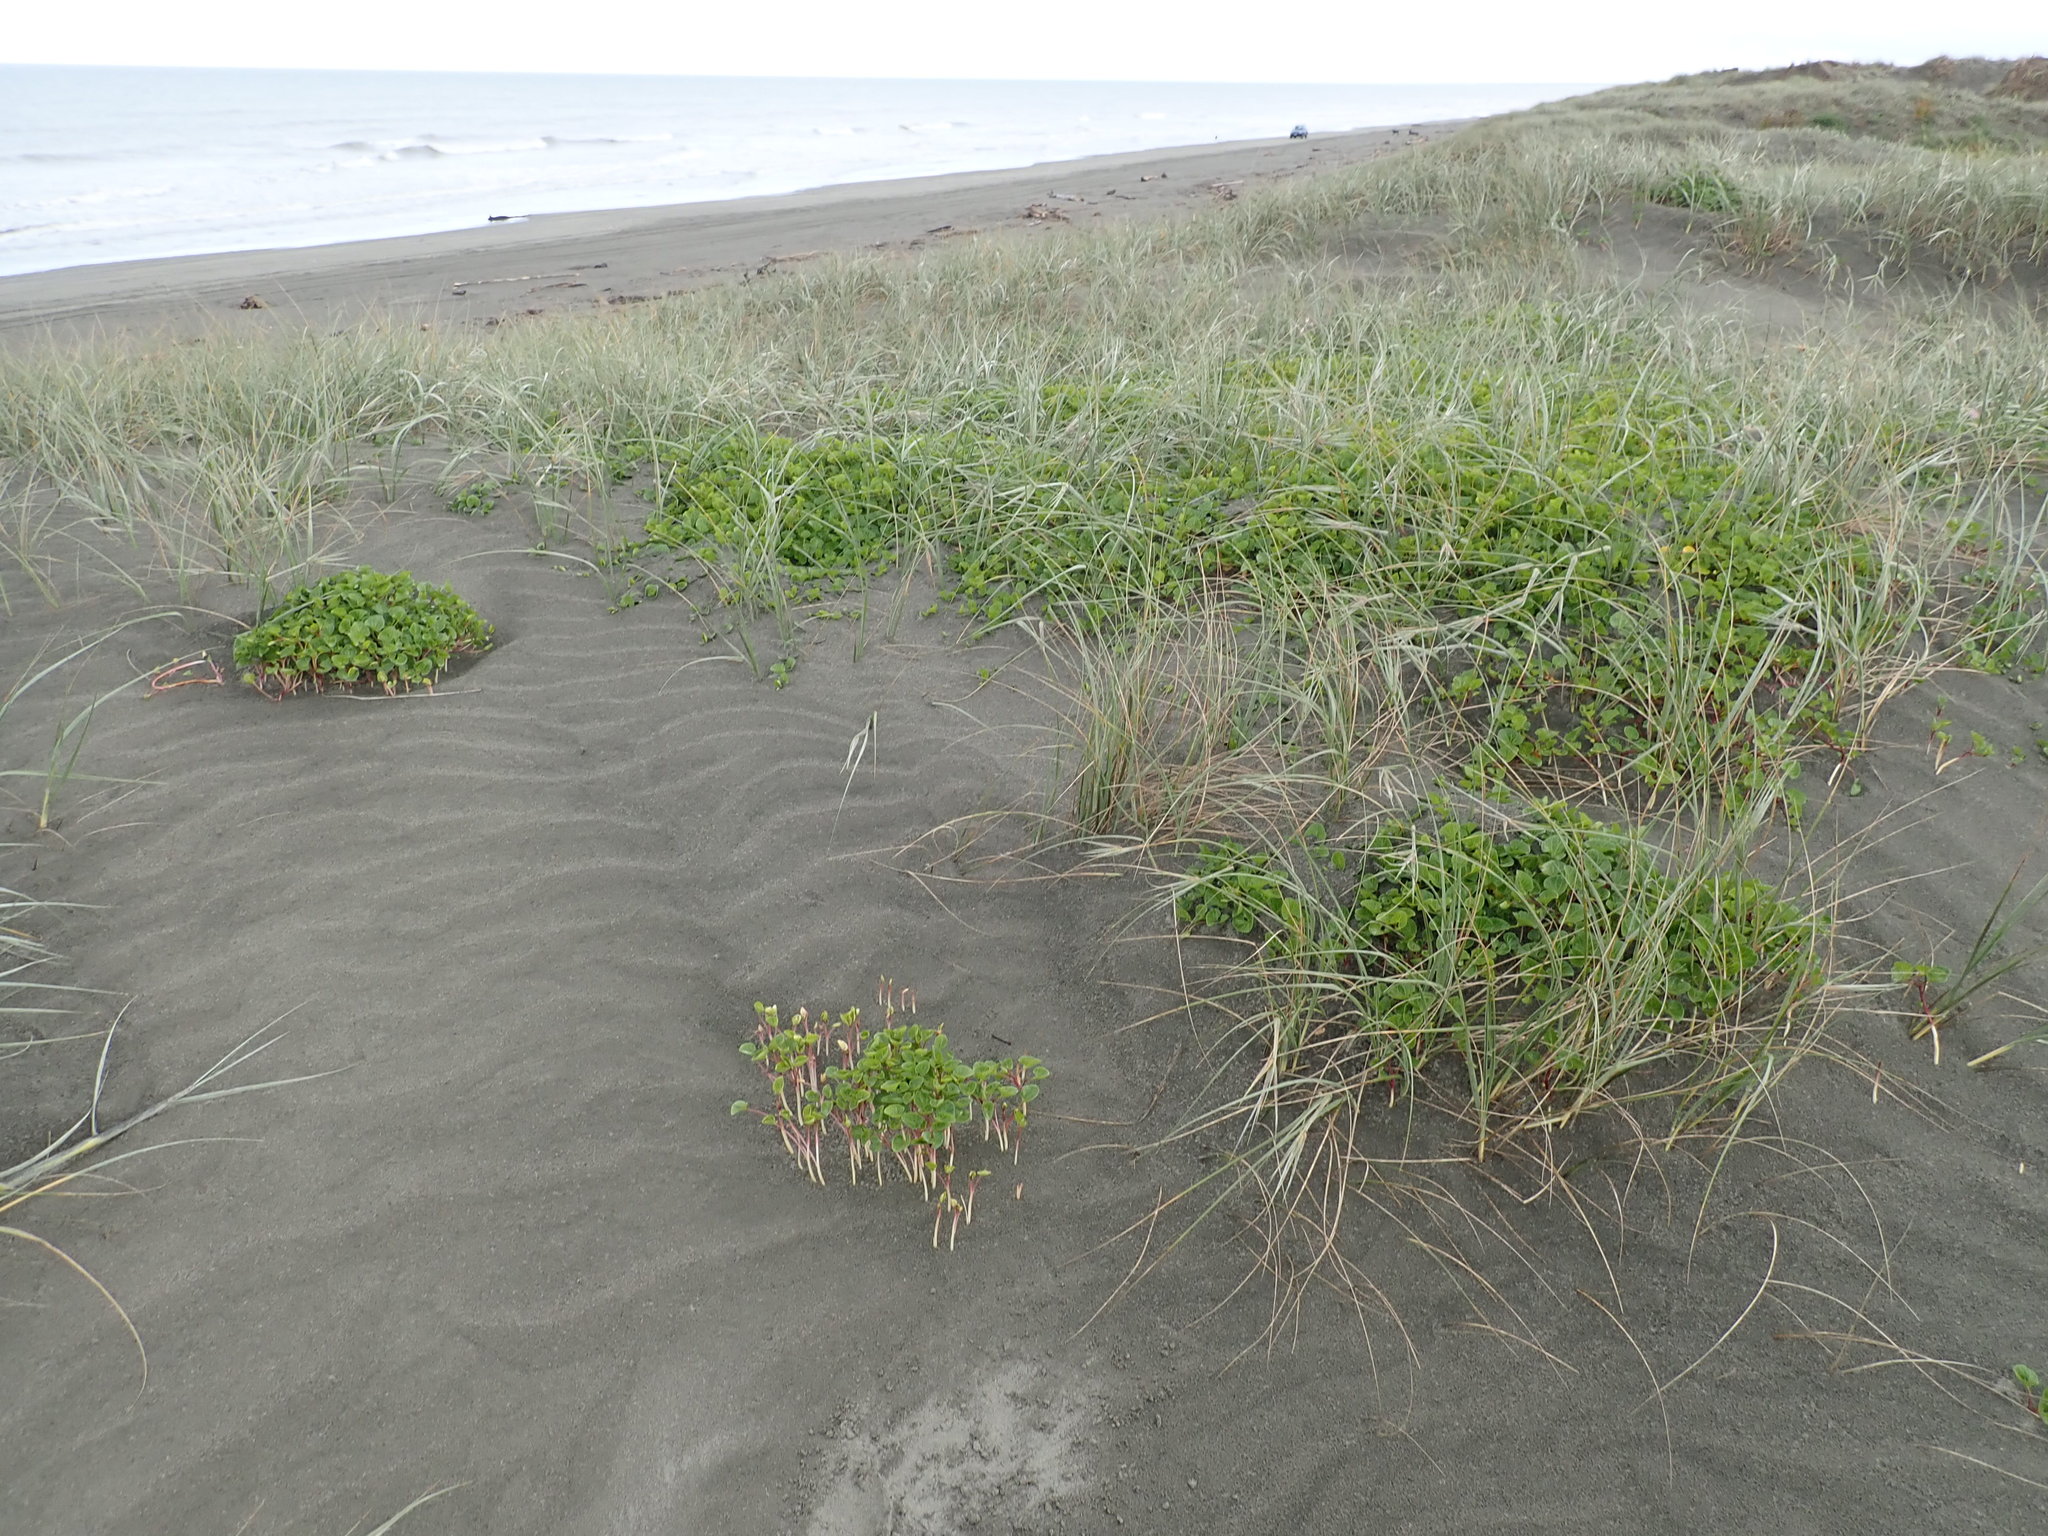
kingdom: Plantae
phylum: Tracheophyta
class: Magnoliopsida
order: Solanales
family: Convolvulaceae
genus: Calystegia
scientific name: Calystegia soldanella
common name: Sea bindweed
